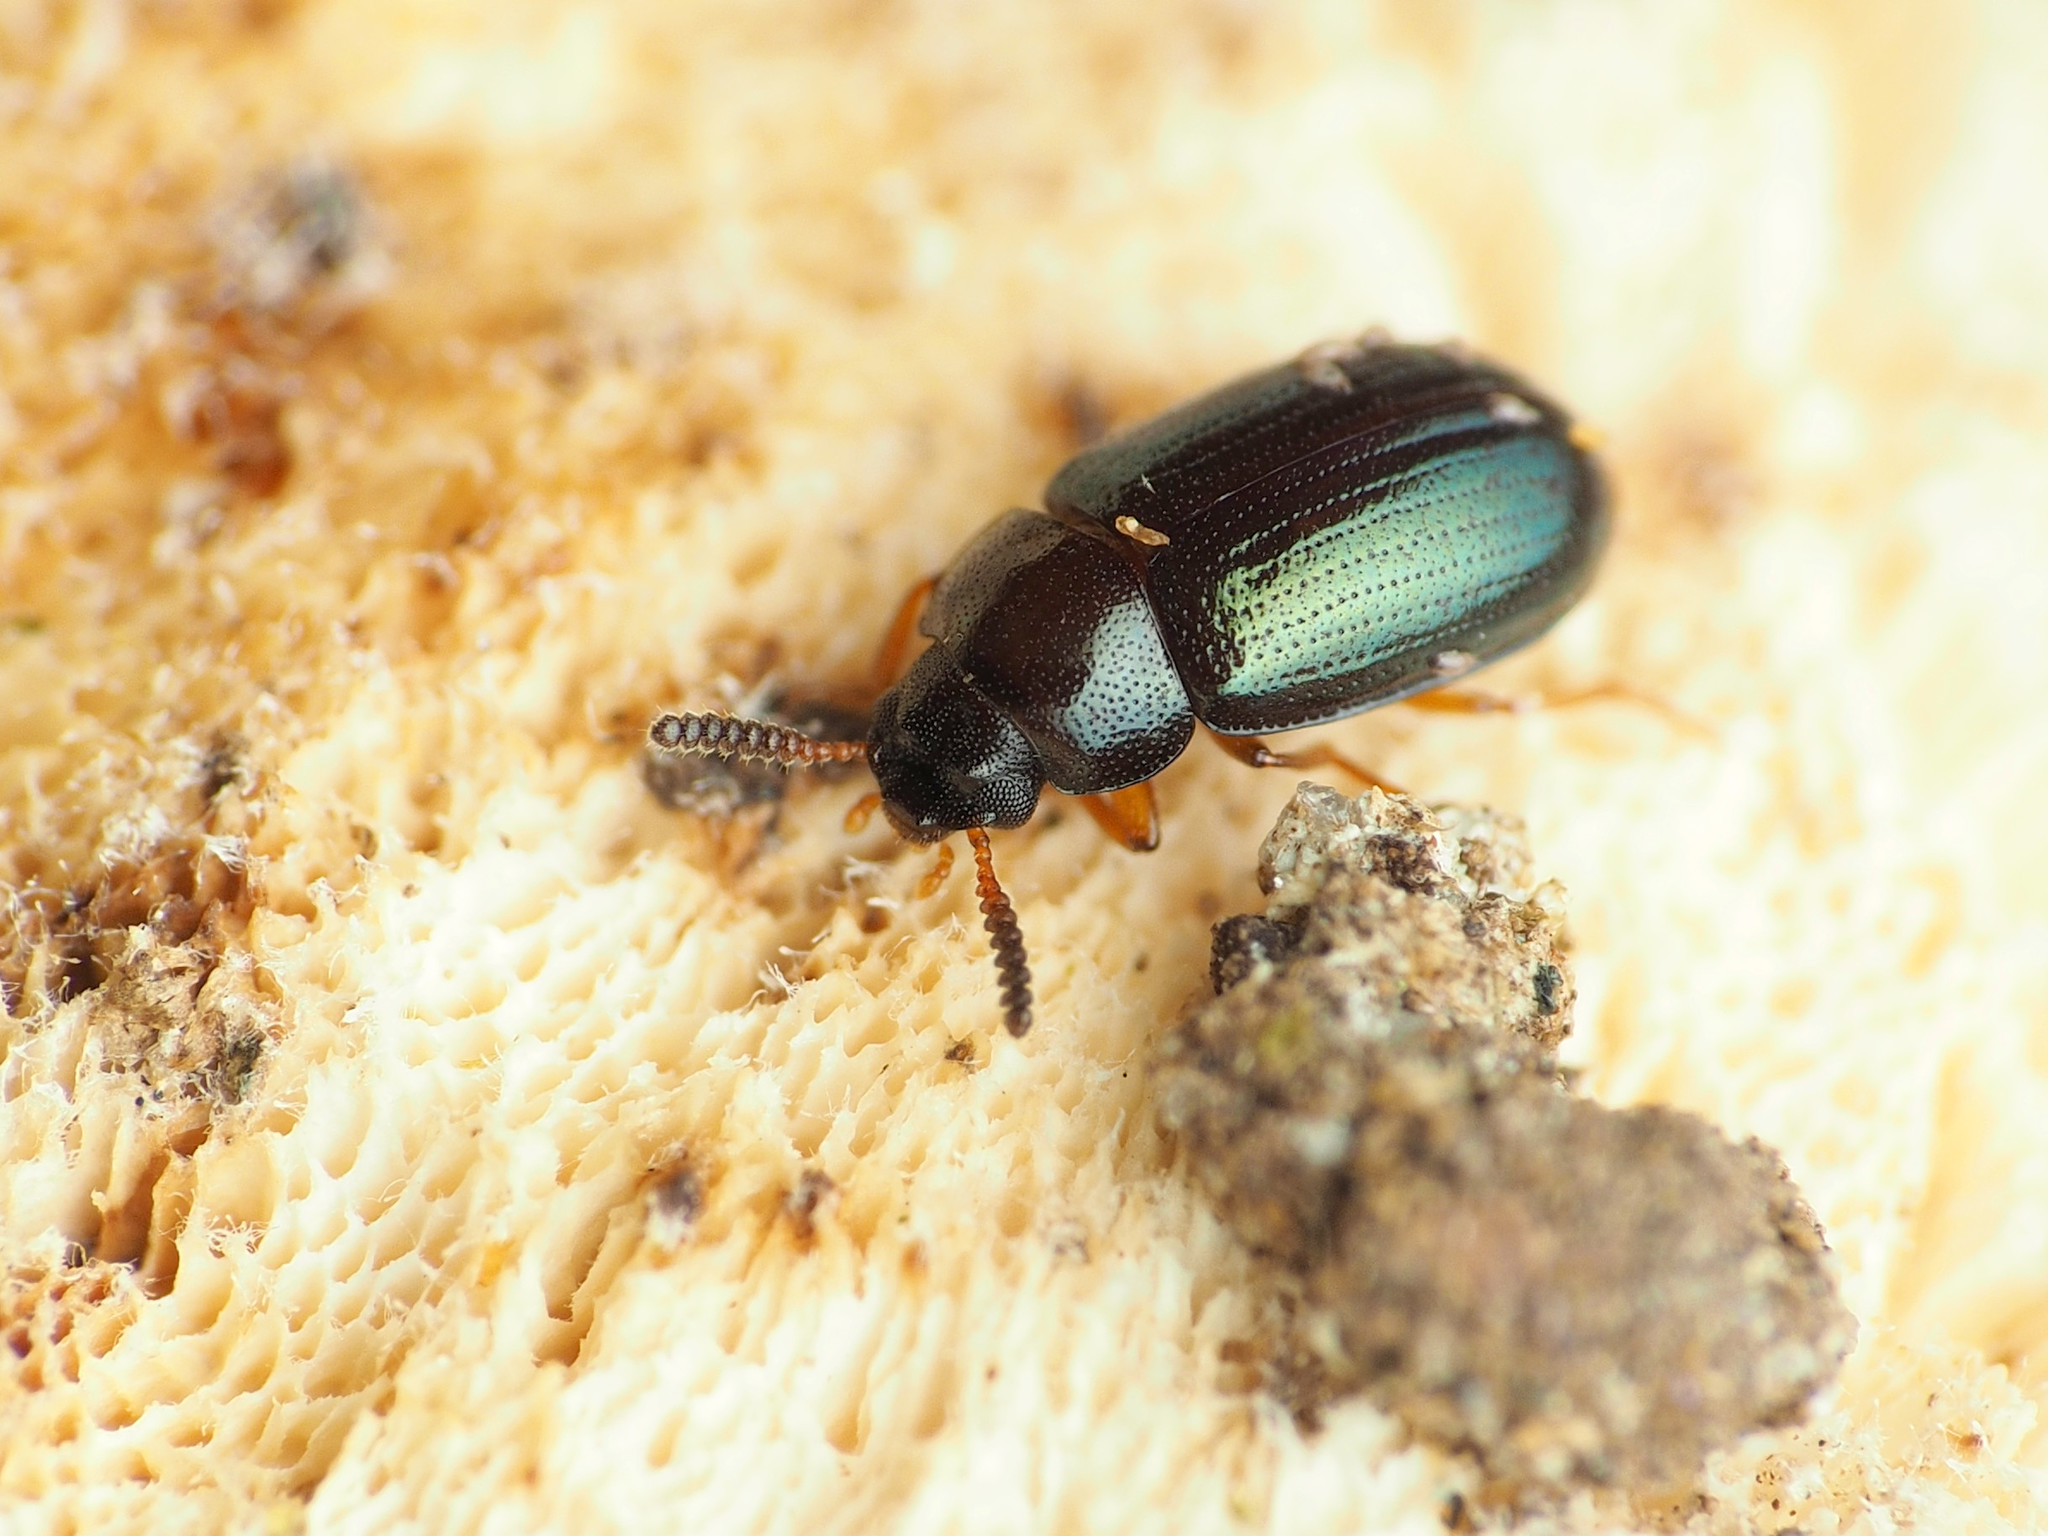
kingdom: Animalia
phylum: Arthropoda
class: Insecta
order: Coleoptera
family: Tenebrionidae
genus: Neomida
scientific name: Neomida bicornis
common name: Two-horned darkling beetle
